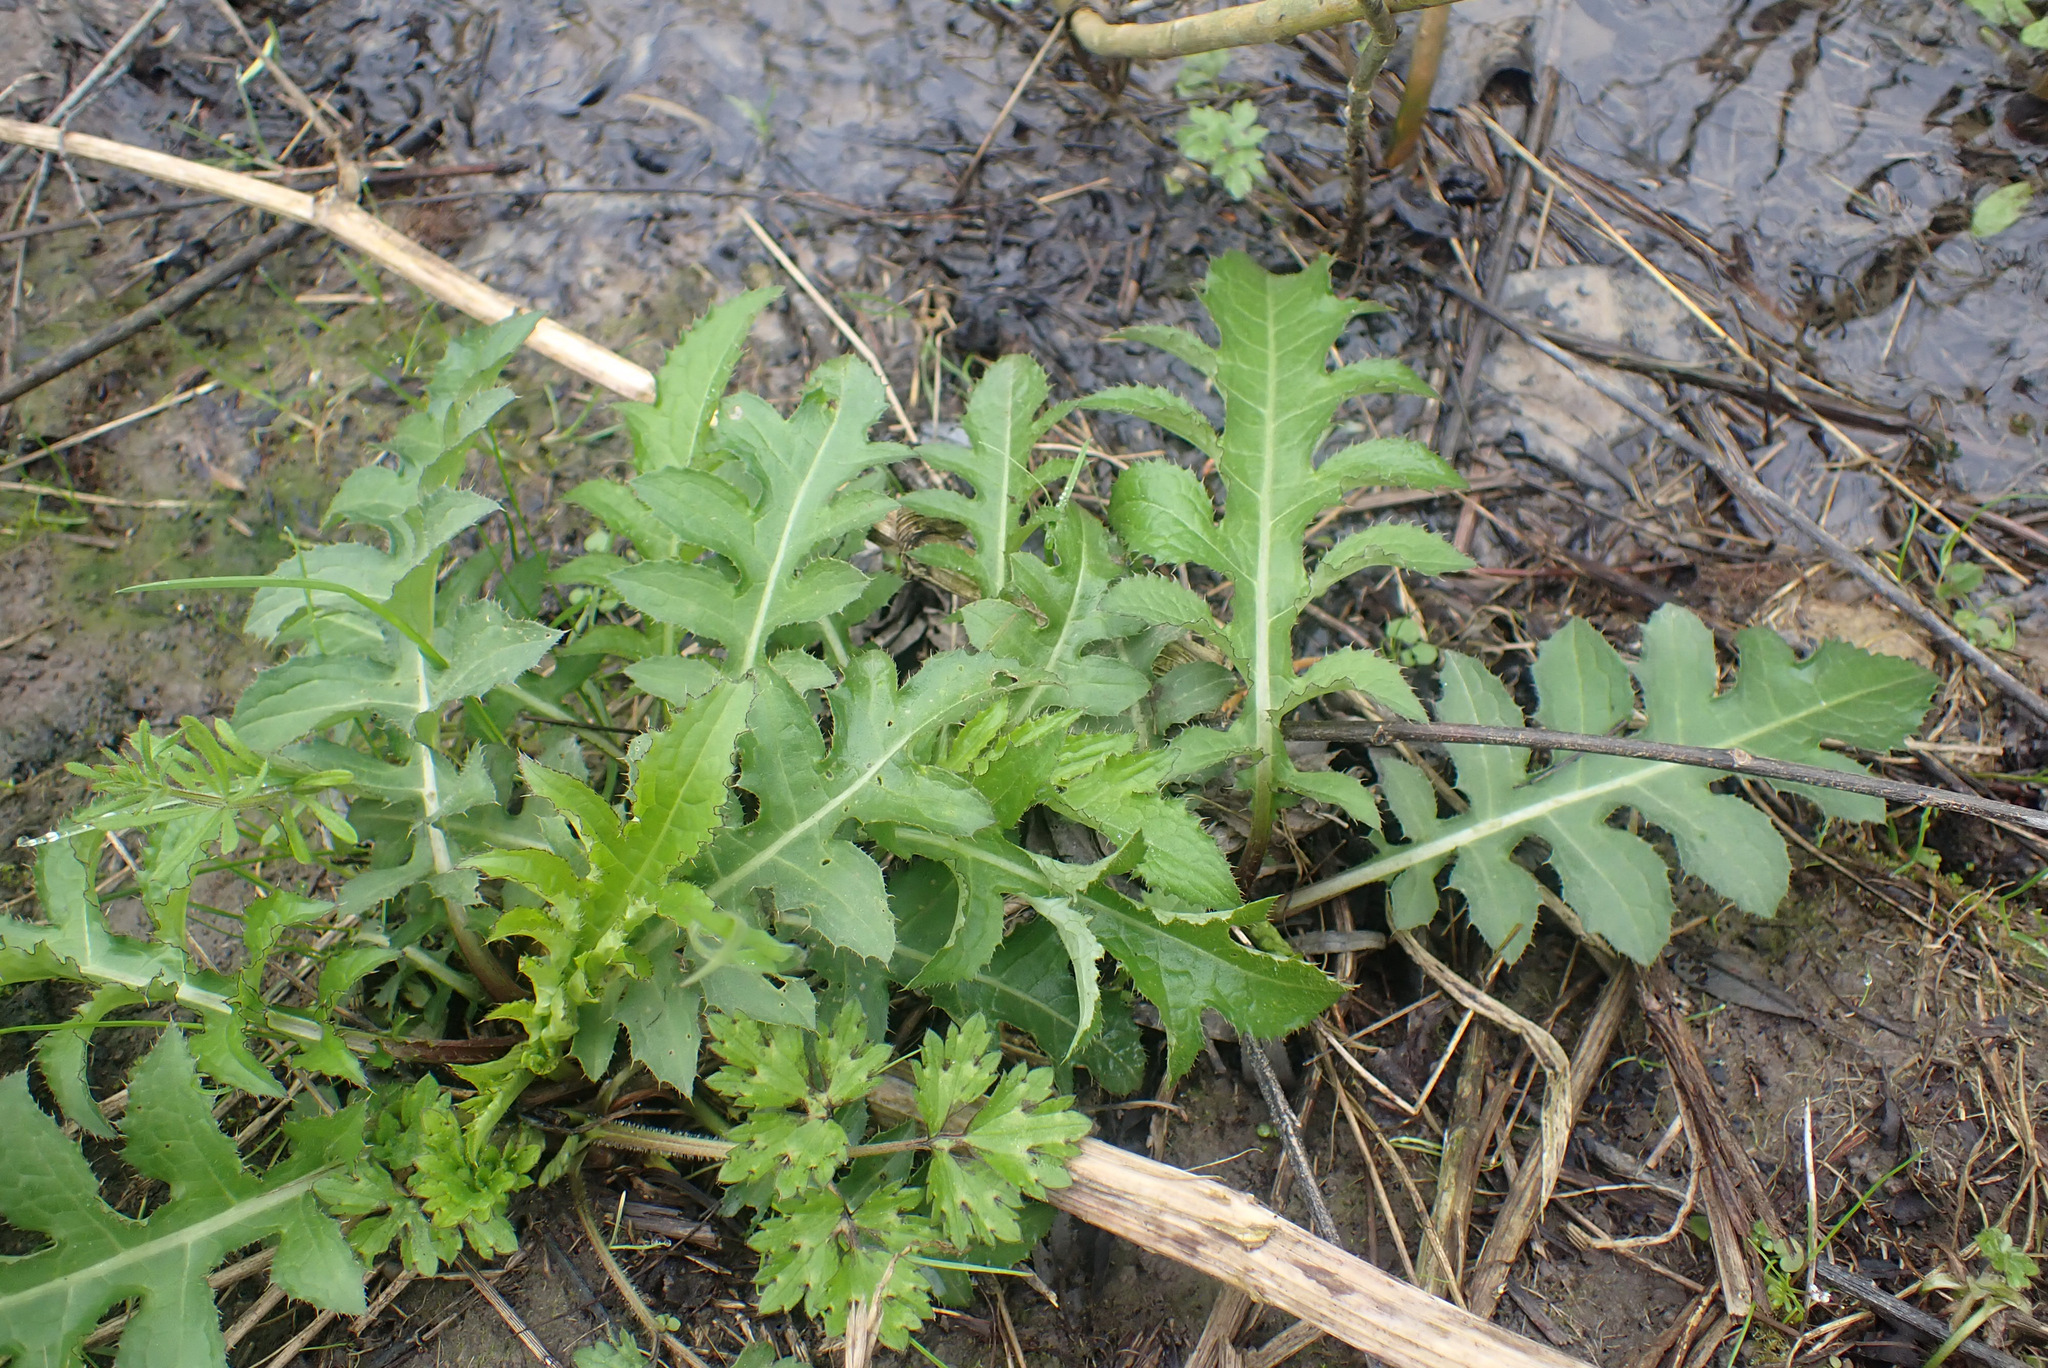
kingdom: Plantae
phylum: Tracheophyta
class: Magnoliopsida
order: Asterales
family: Asteraceae
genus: Cirsium
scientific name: Cirsium oleraceum
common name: Cabbage thistle
